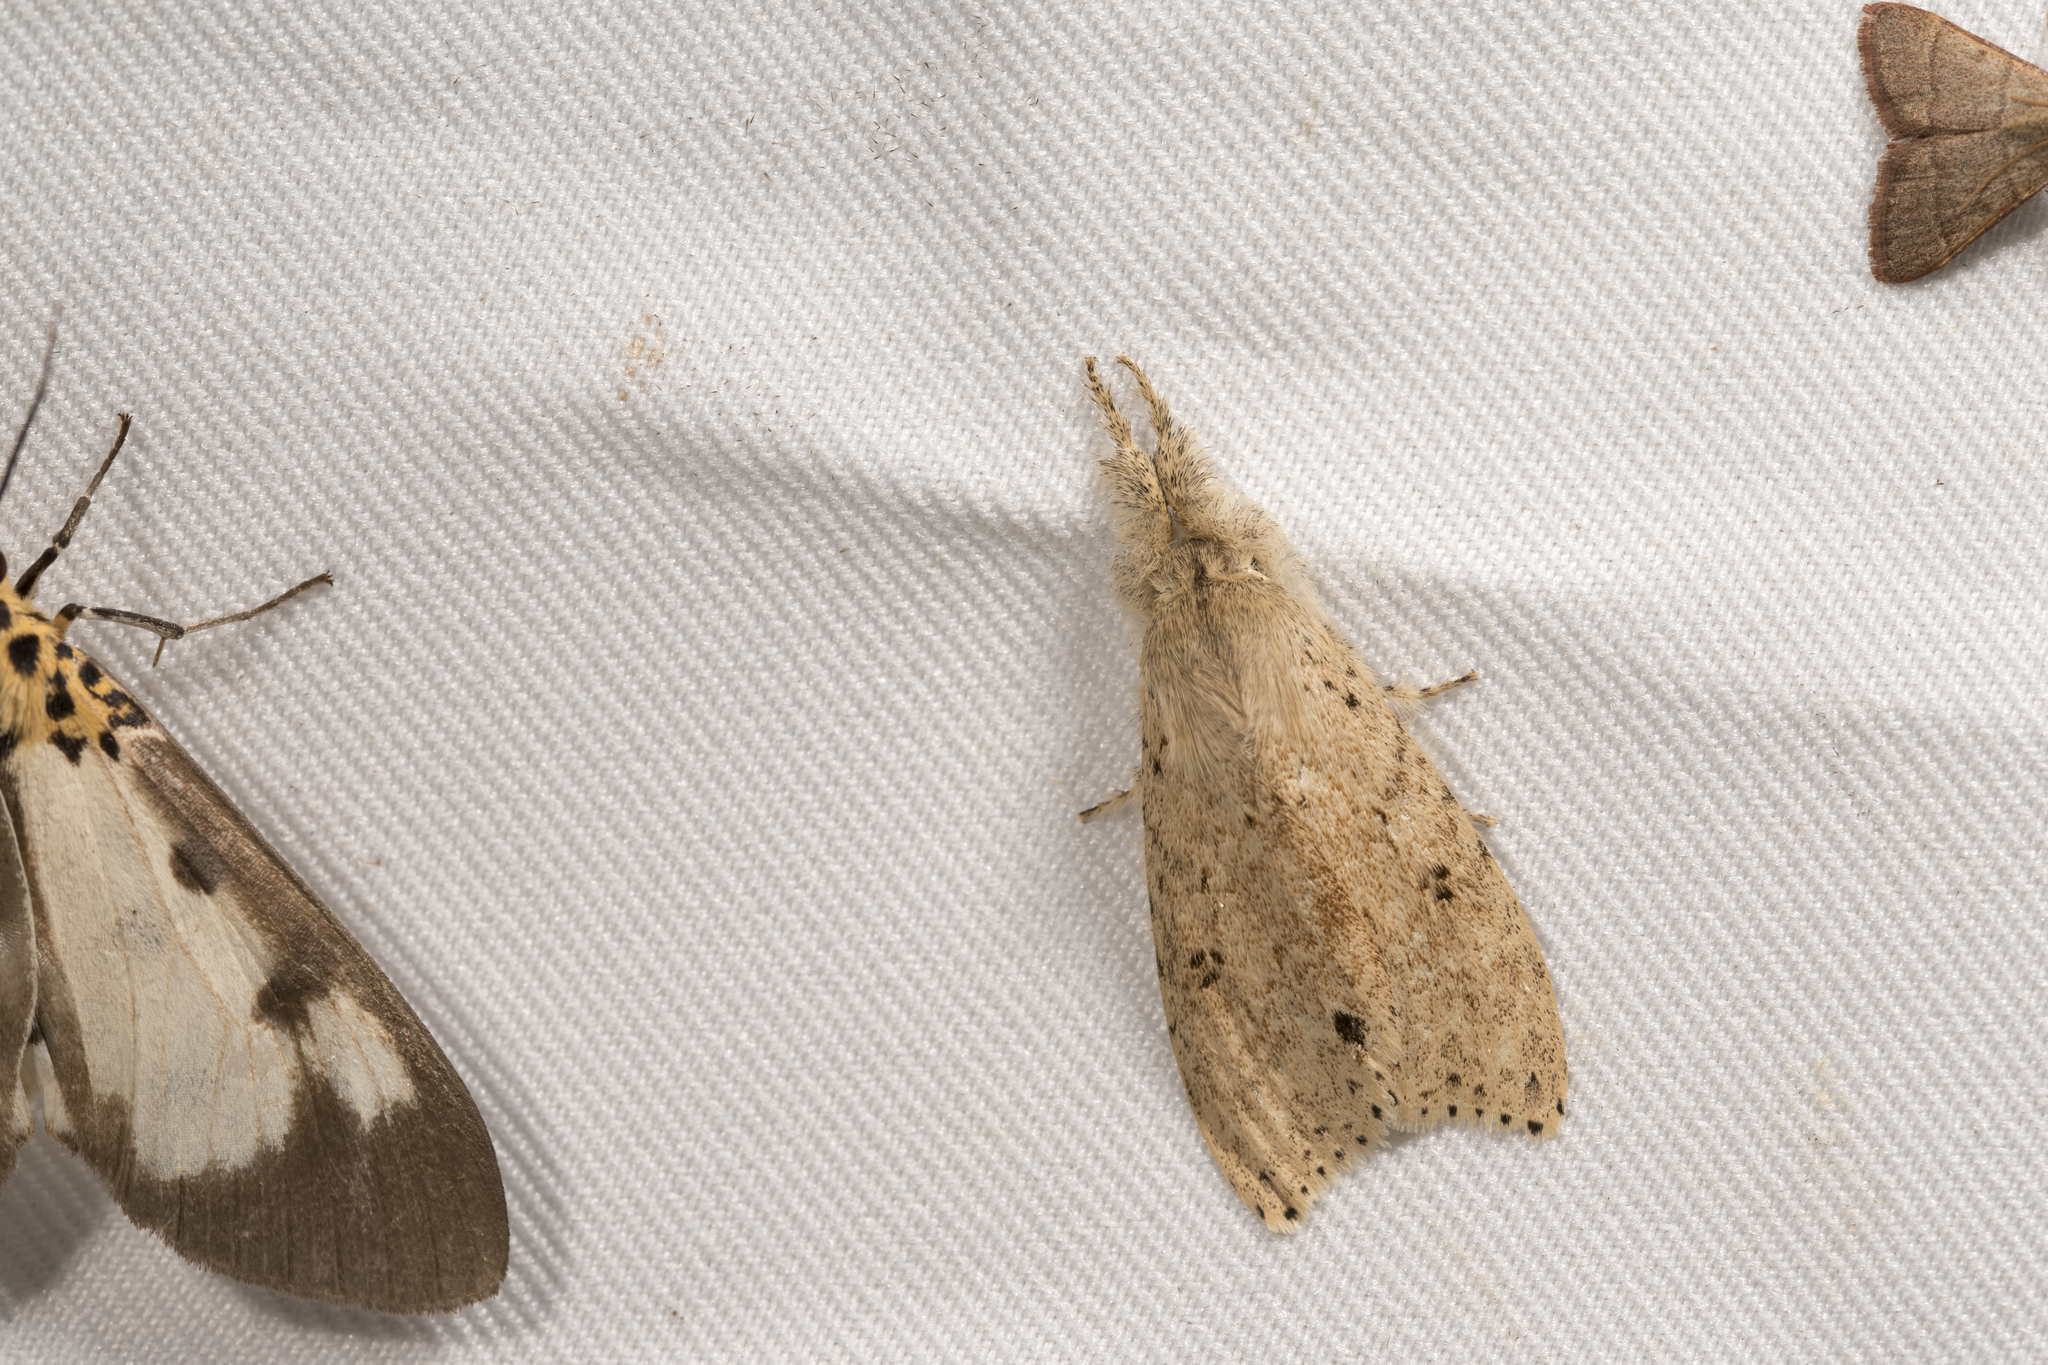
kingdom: Animalia
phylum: Arthropoda
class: Insecta
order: Lepidoptera
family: Erebidae
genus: Calliteara
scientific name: Calliteara angulata
